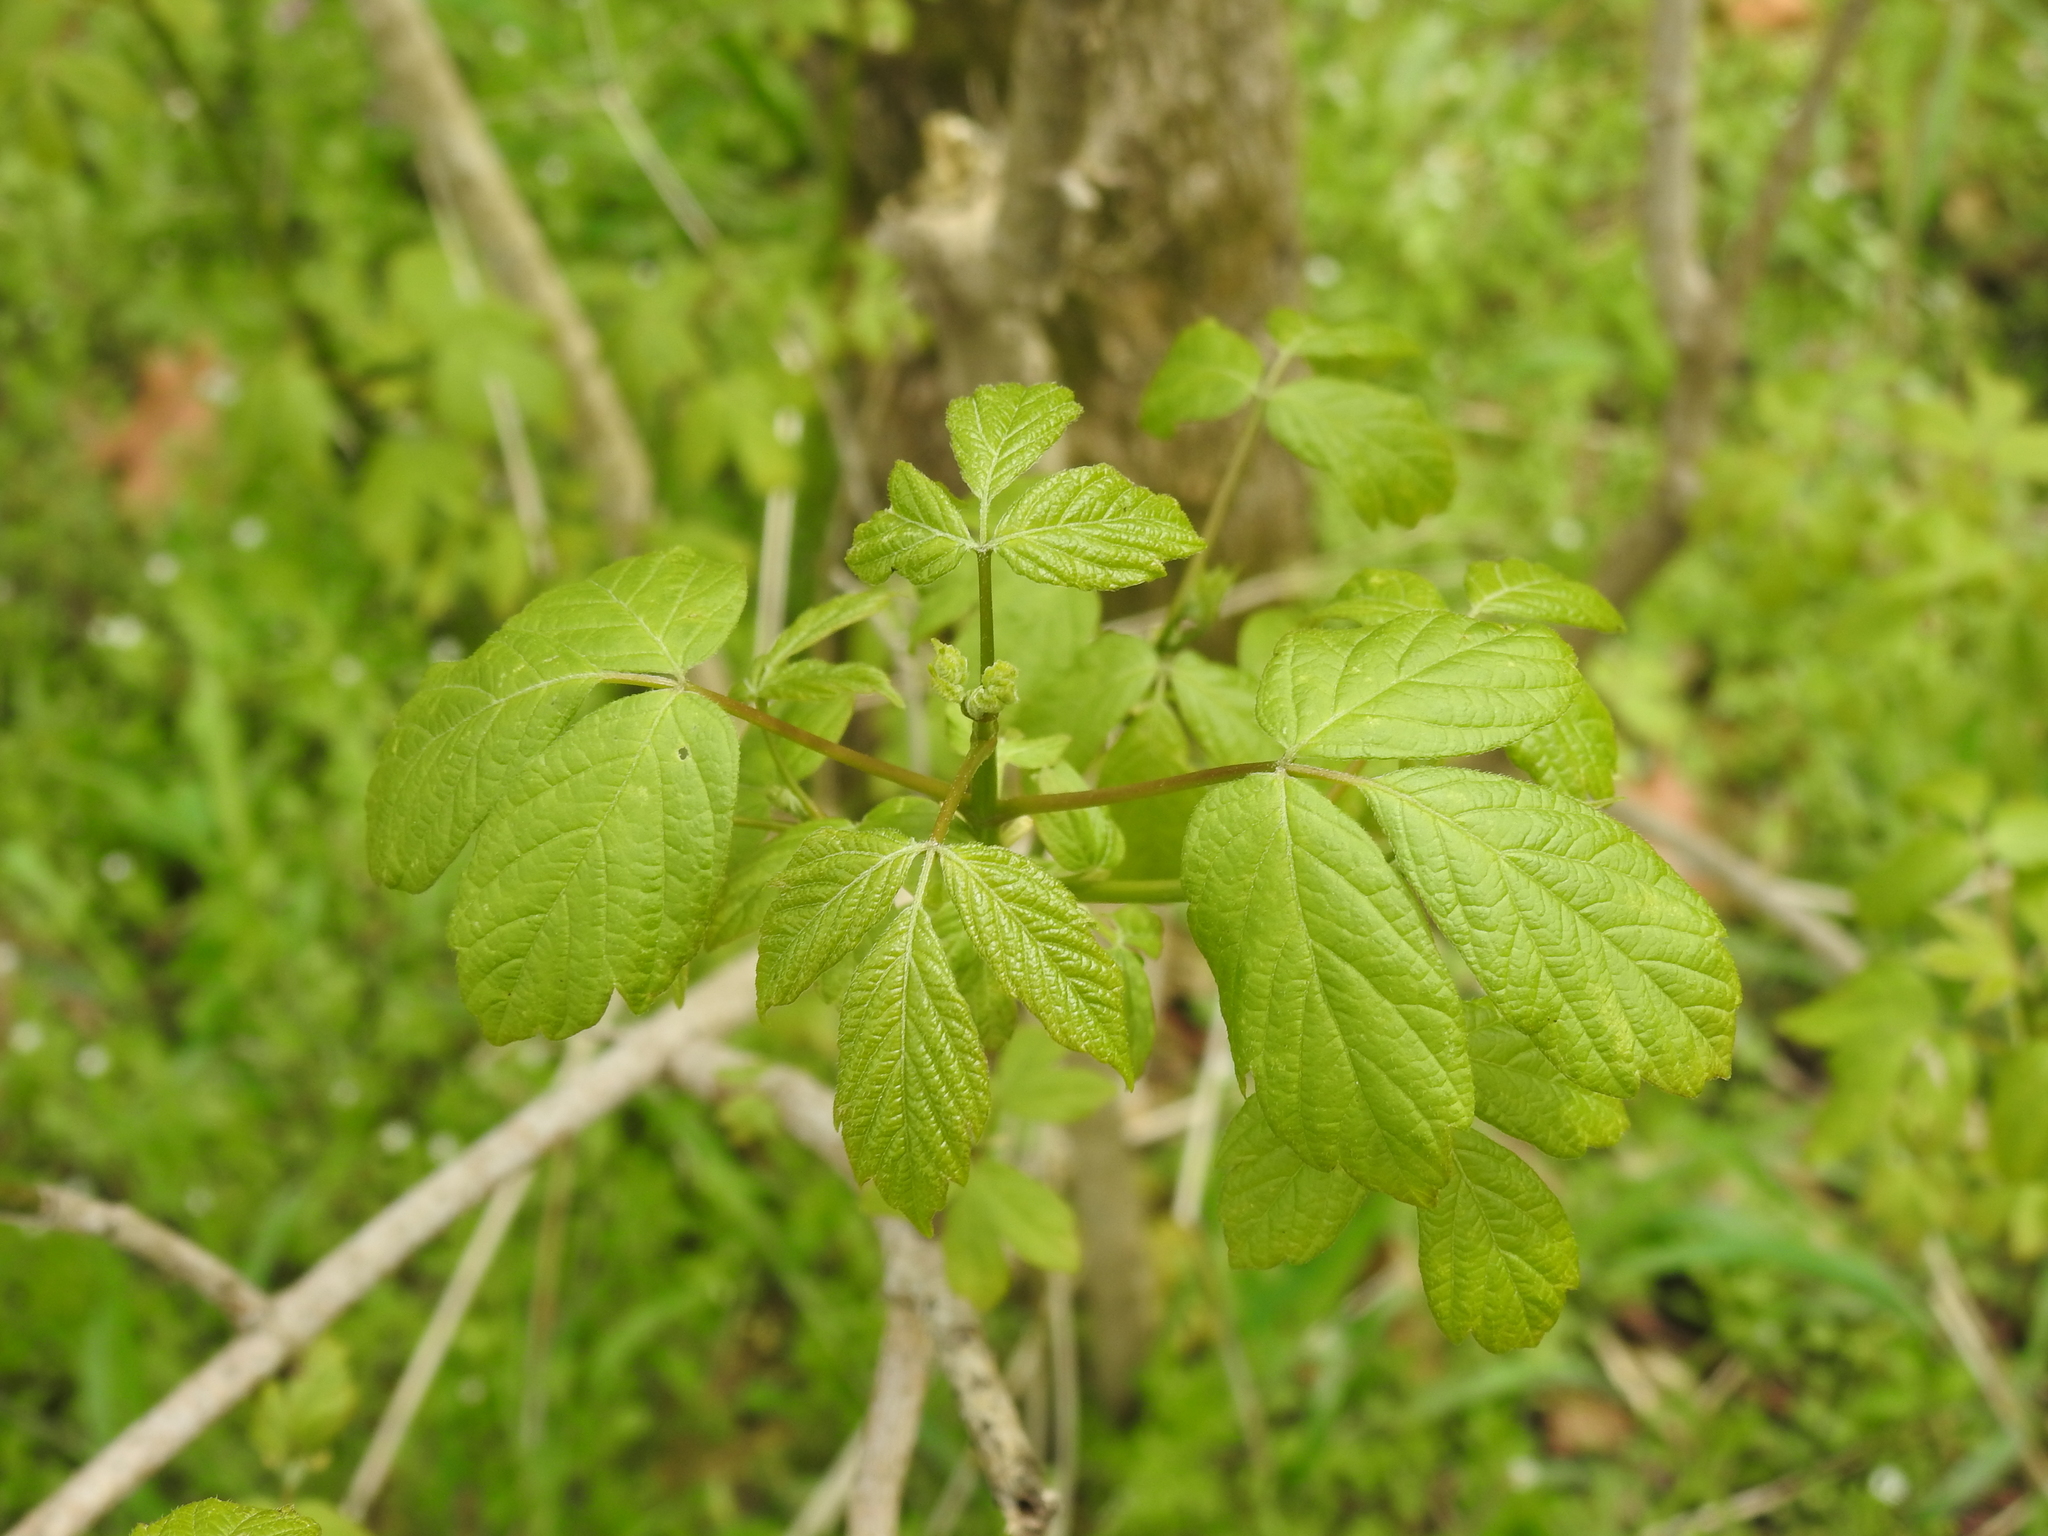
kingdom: Plantae
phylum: Tracheophyta
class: Magnoliopsida
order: Sapindales
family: Sapindaceae
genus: Acer
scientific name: Acer negundo
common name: Ashleaf maple
